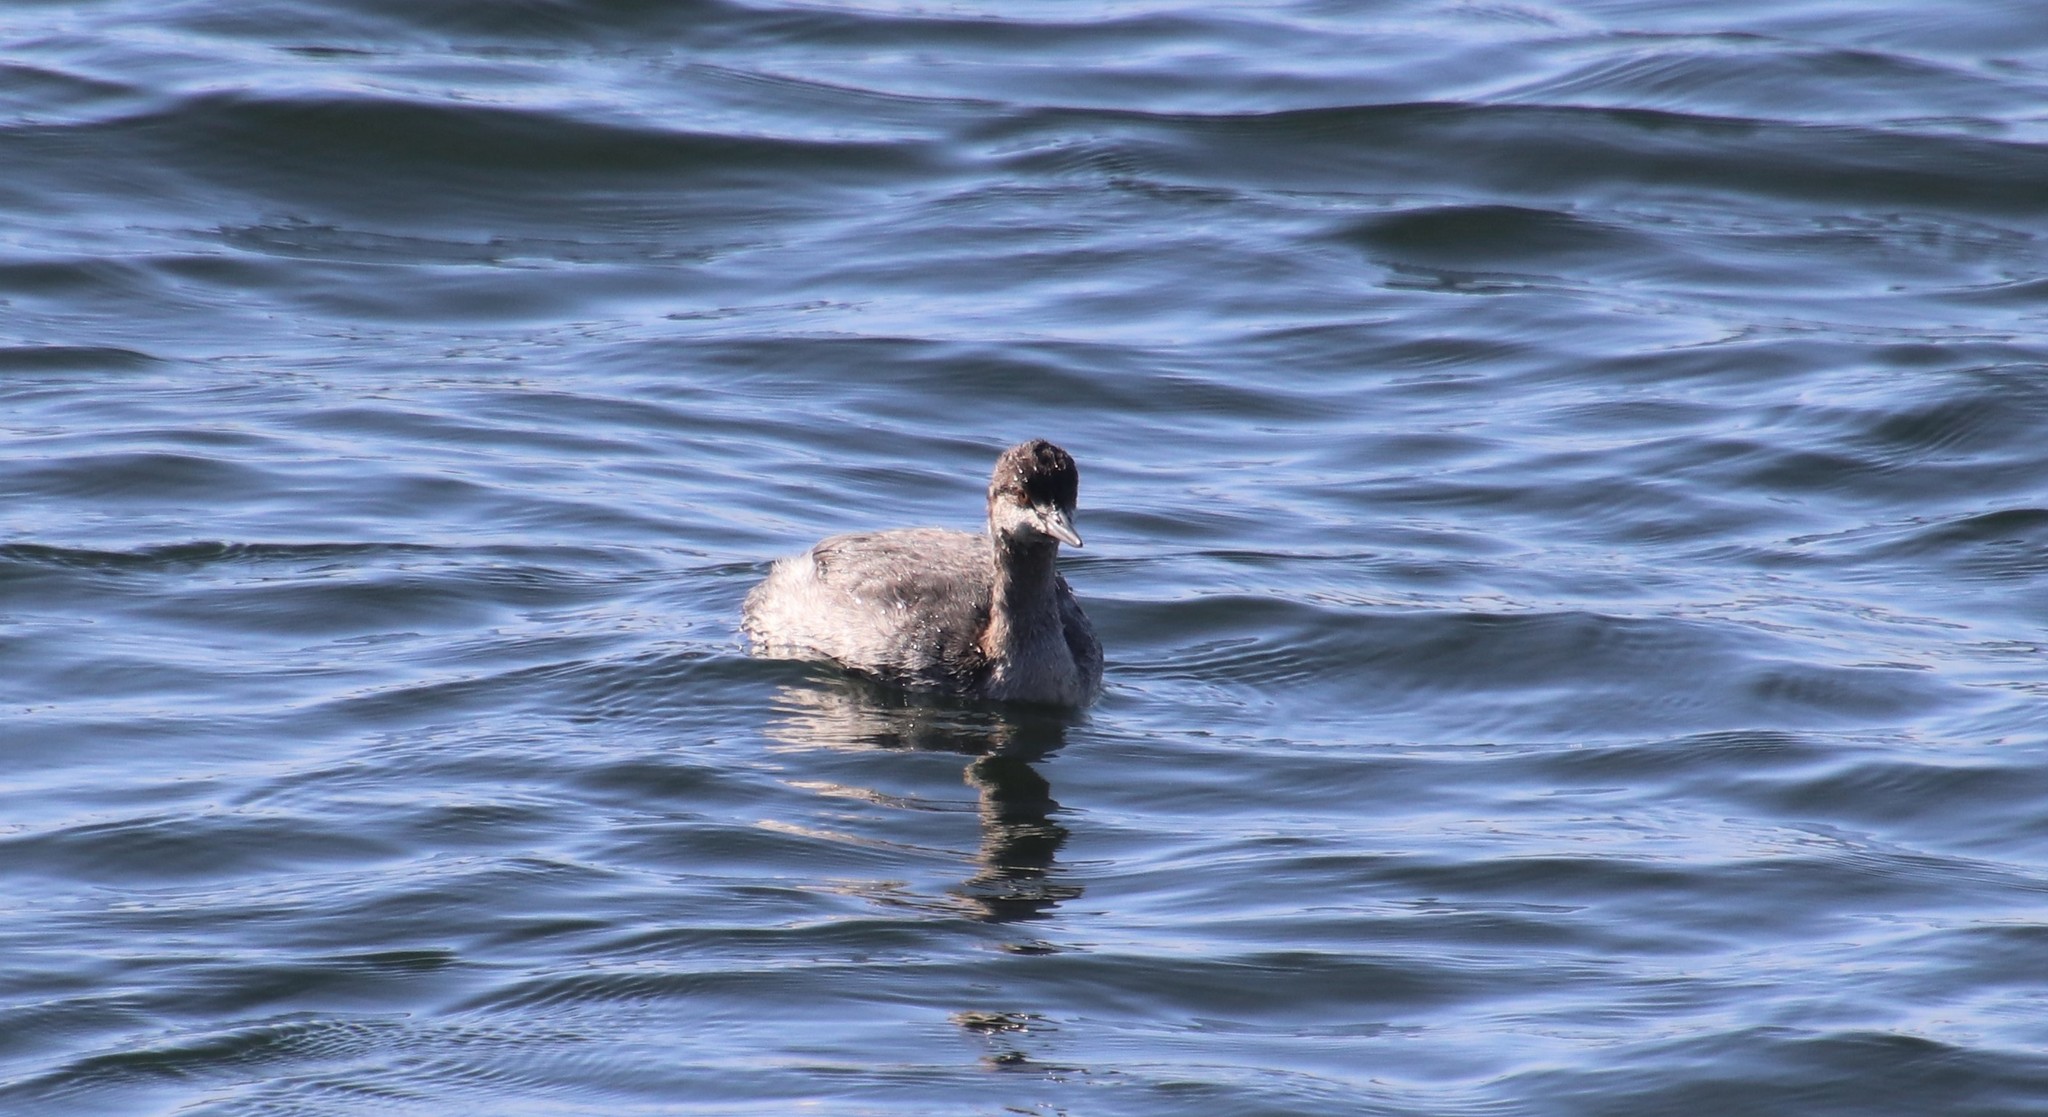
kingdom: Animalia
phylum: Chordata
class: Aves
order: Podicipediformes
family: Podicipedidae
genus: Podiceps
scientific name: Podiceps nigricollis
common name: Black-necked grebe
